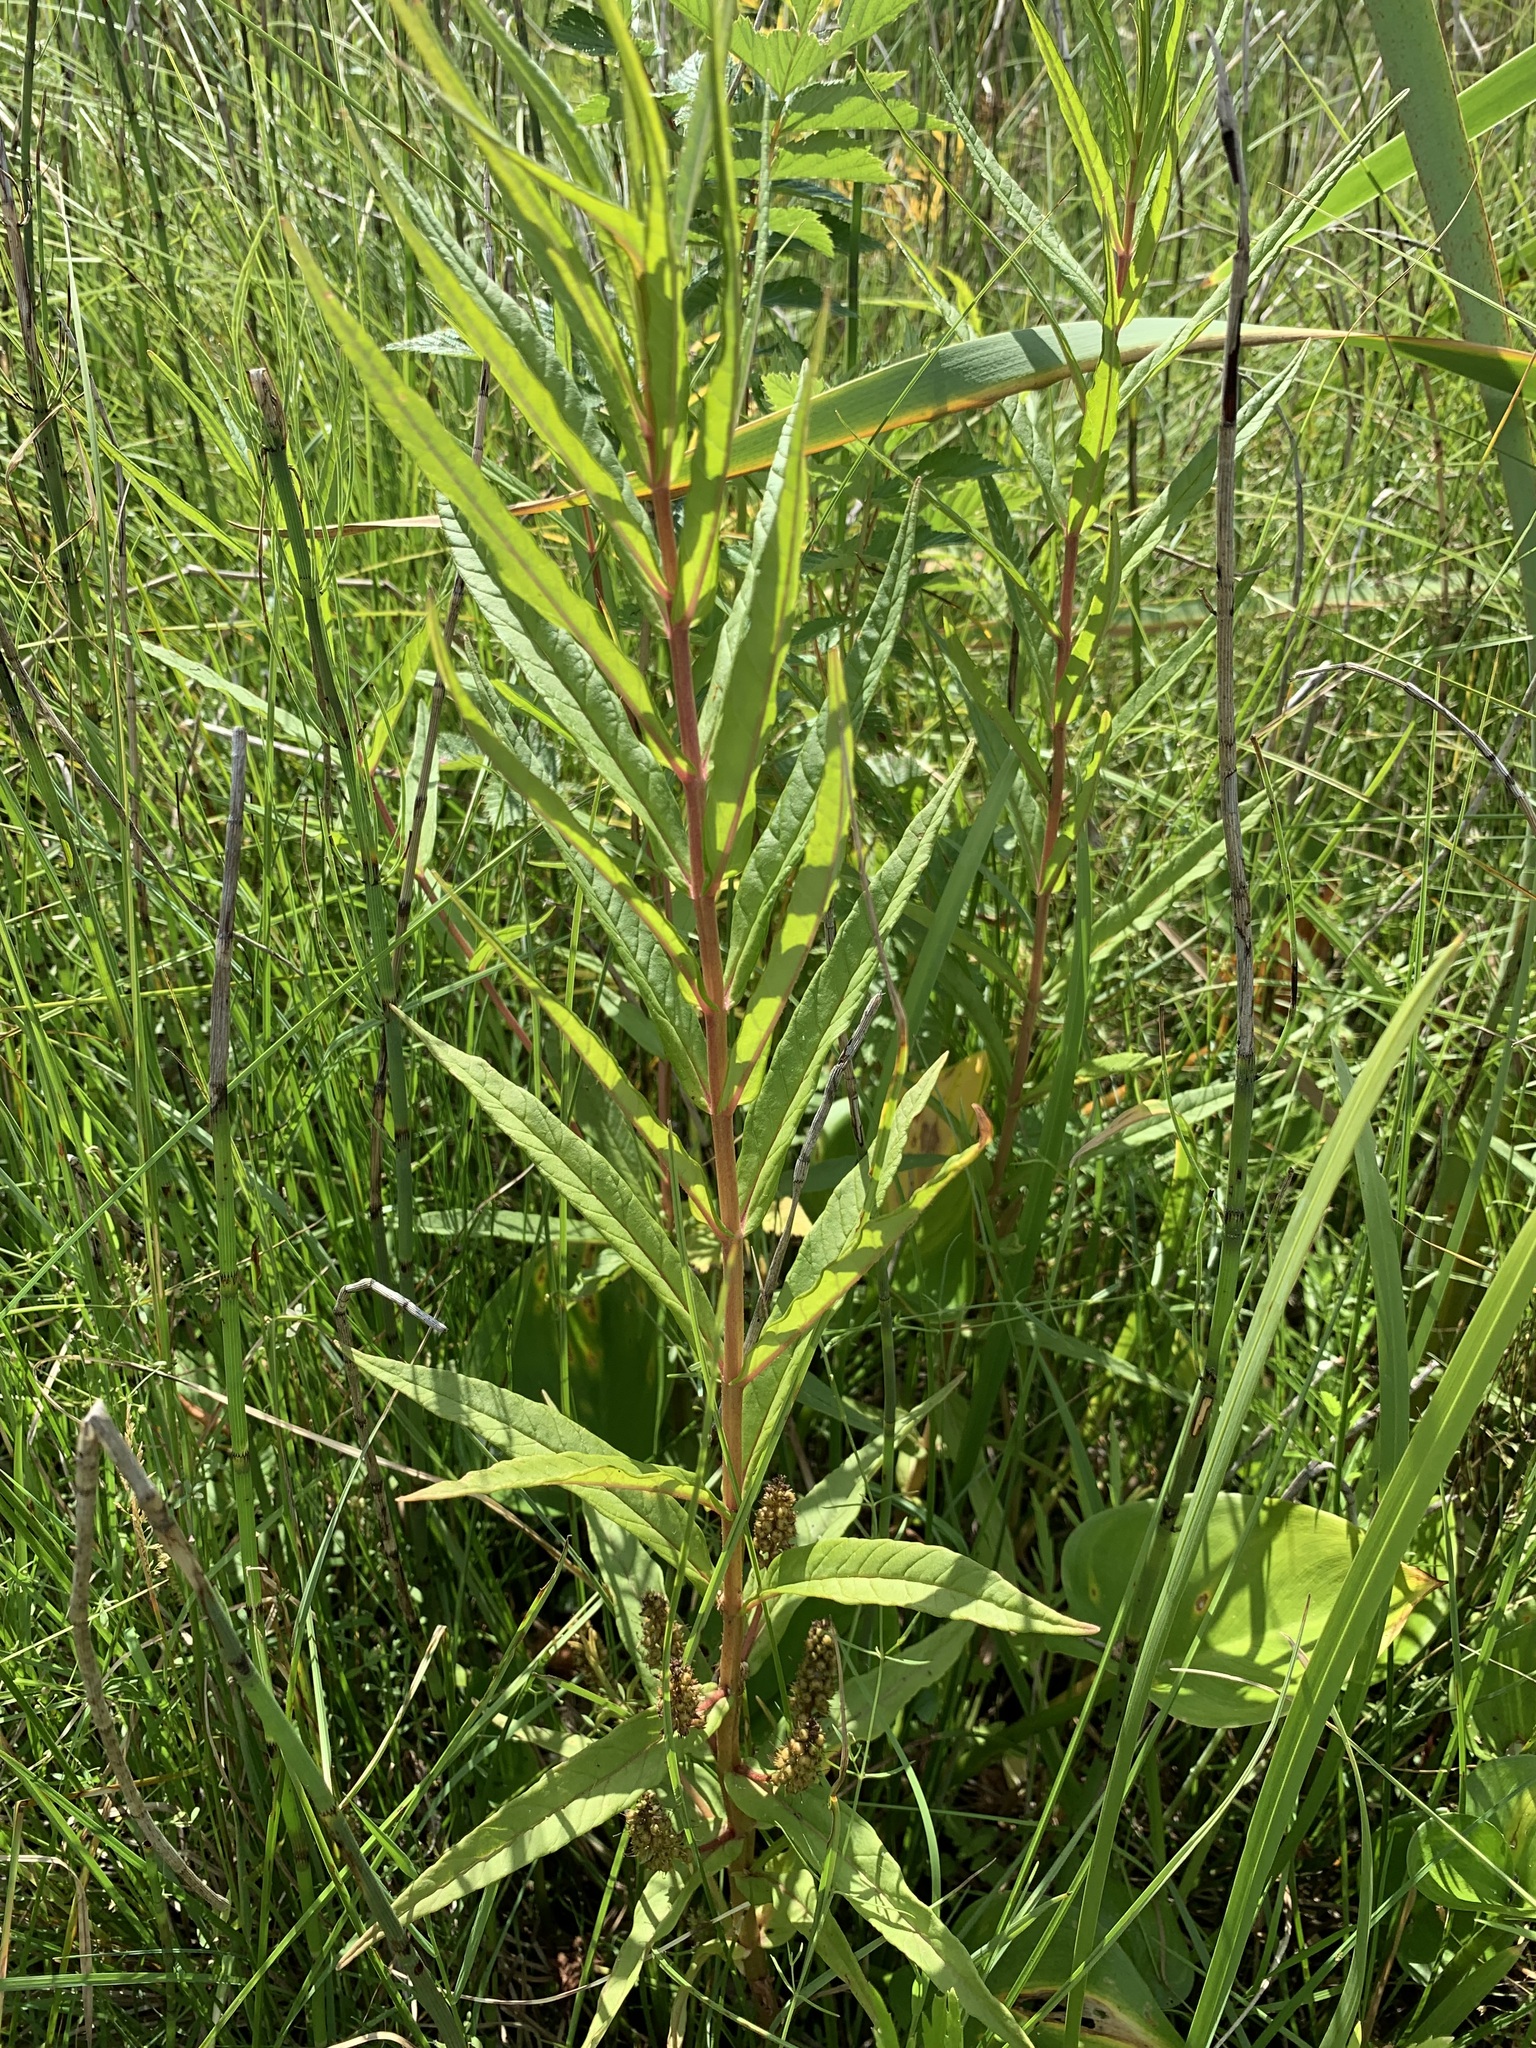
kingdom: Plantae
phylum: Tracheophyta
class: Magnoliopsida
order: Ericales
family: Primulaceae
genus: Lysimachia
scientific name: Lysimachia thyrsiflora
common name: Tufted loosestrife
